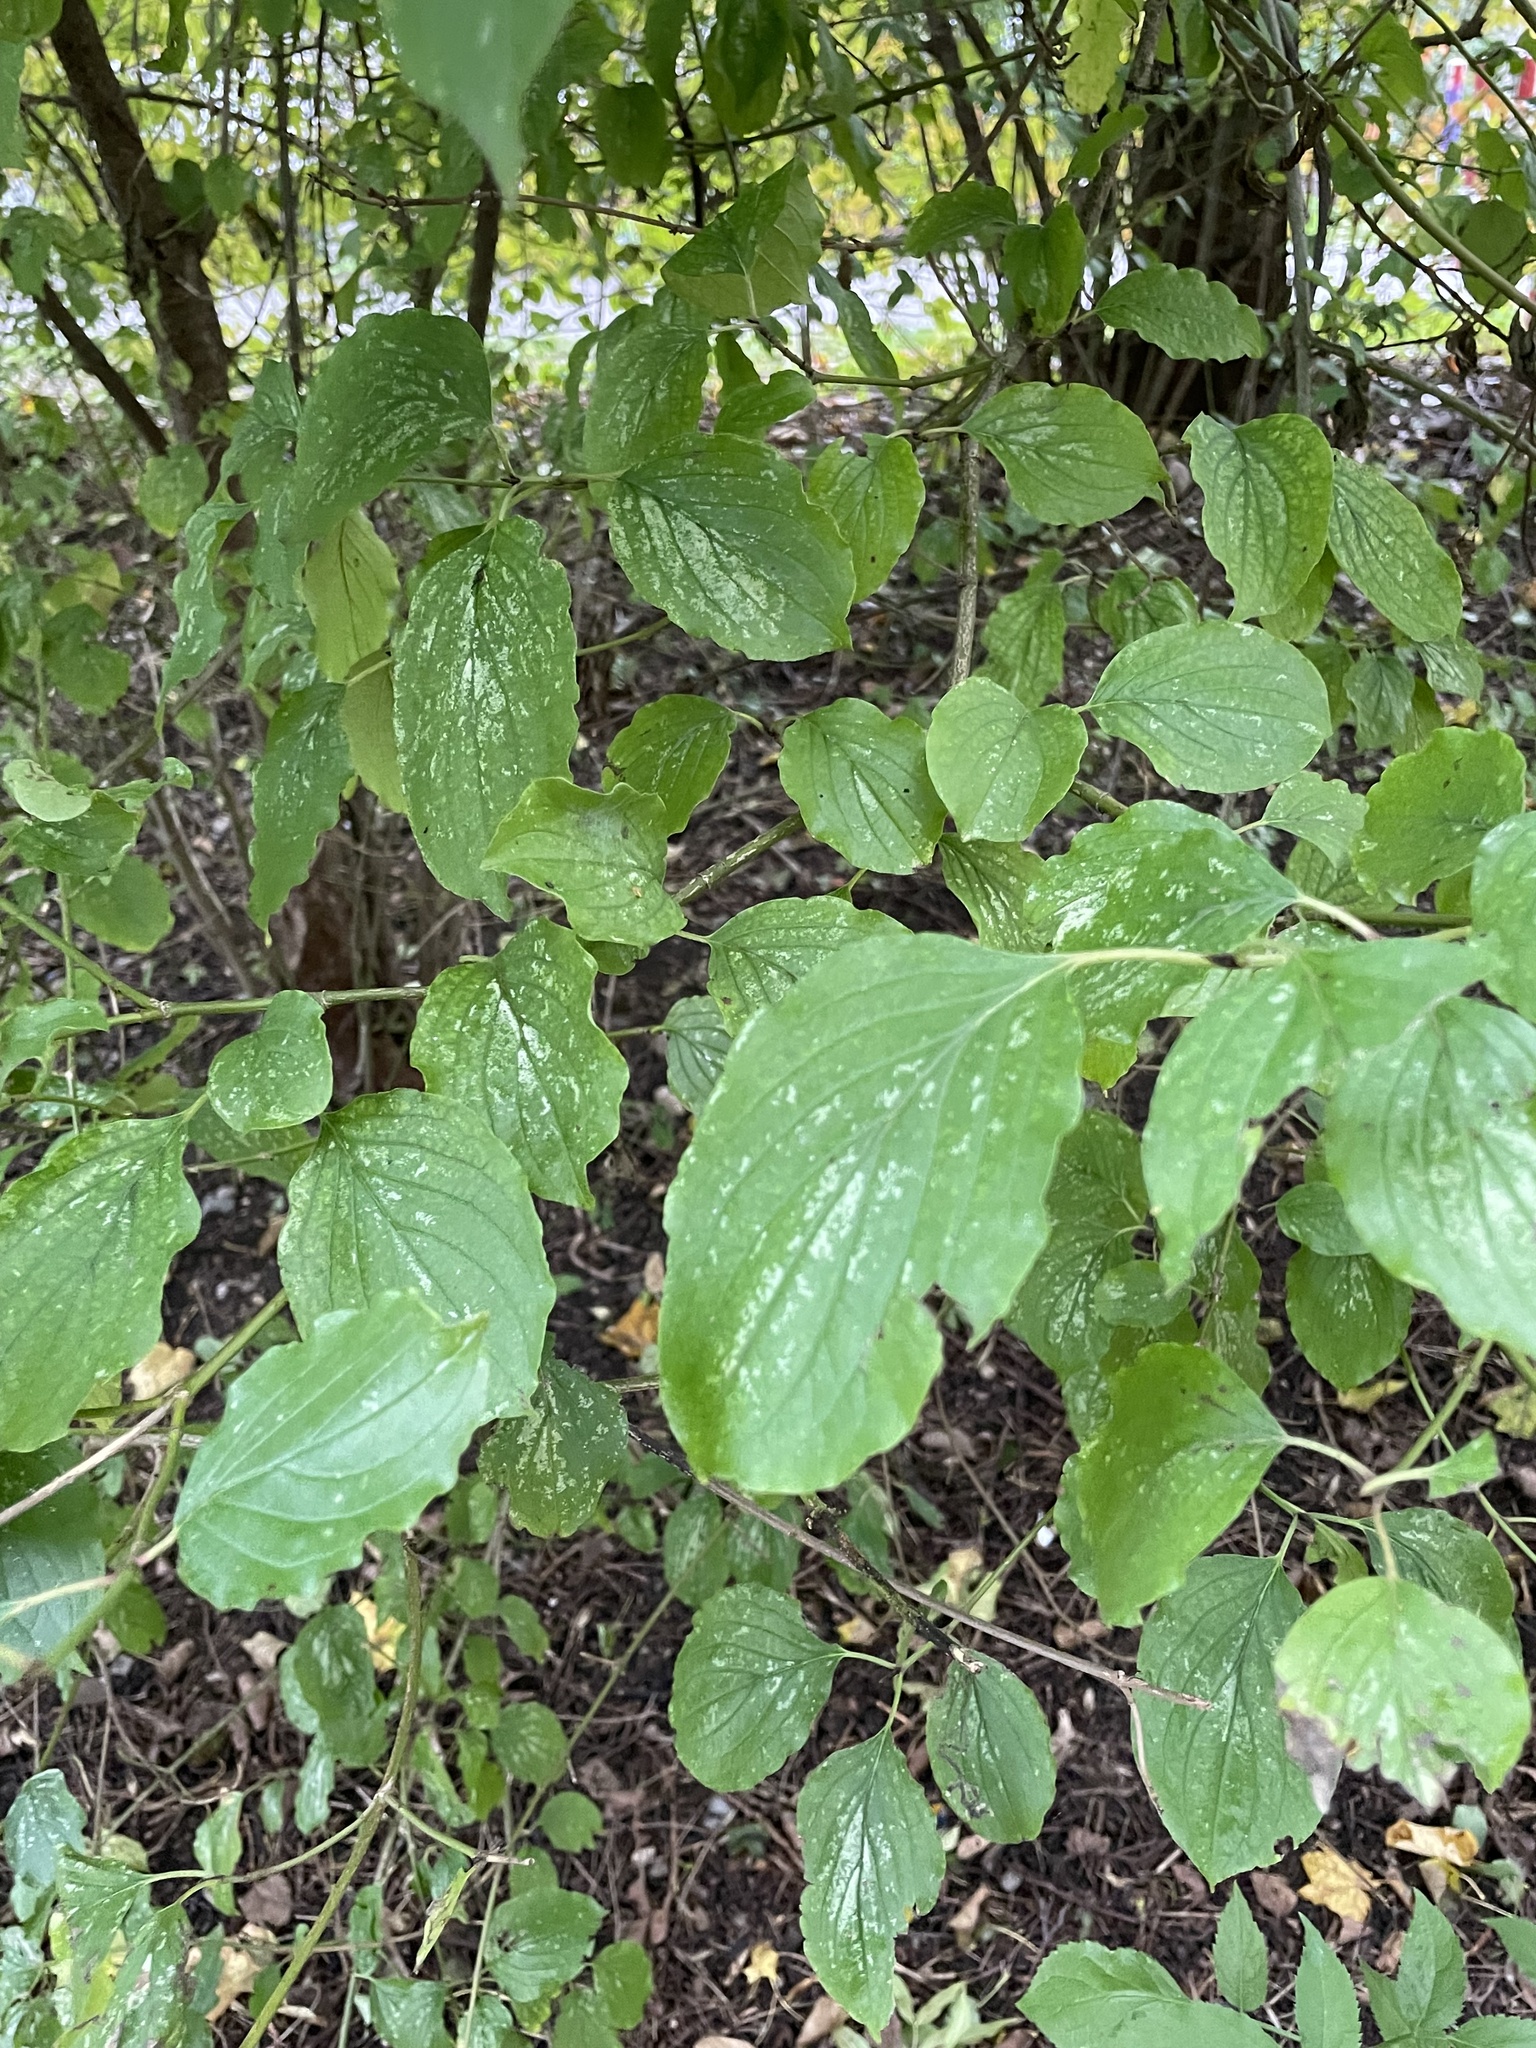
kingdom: Plantae
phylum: Tracheophyta
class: Magnoliopsida
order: Cornales
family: Cornaceae
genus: Cornus
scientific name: Cornus sanguinea
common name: Dogwood
